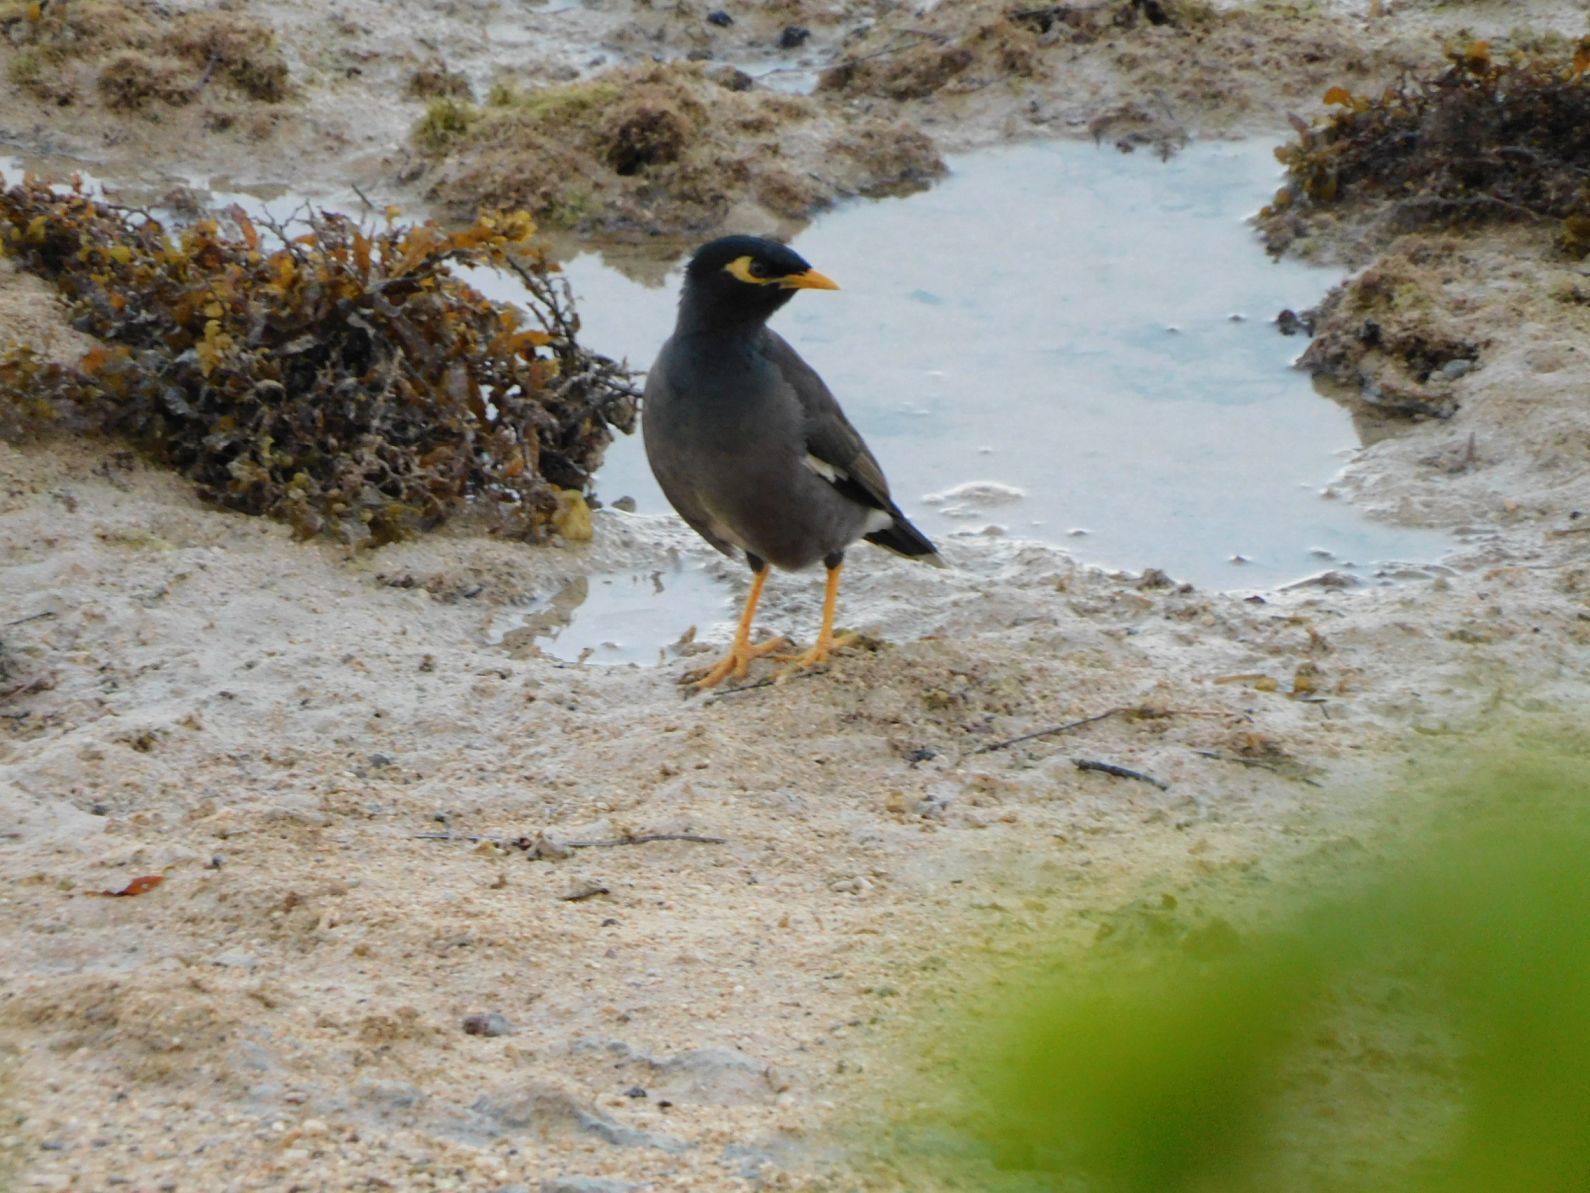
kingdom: Animalia
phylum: Chordata
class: Aves
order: Passeriformes
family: Sturnidae
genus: Acridotheres
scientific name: Acridotheres tristis
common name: Common myna
